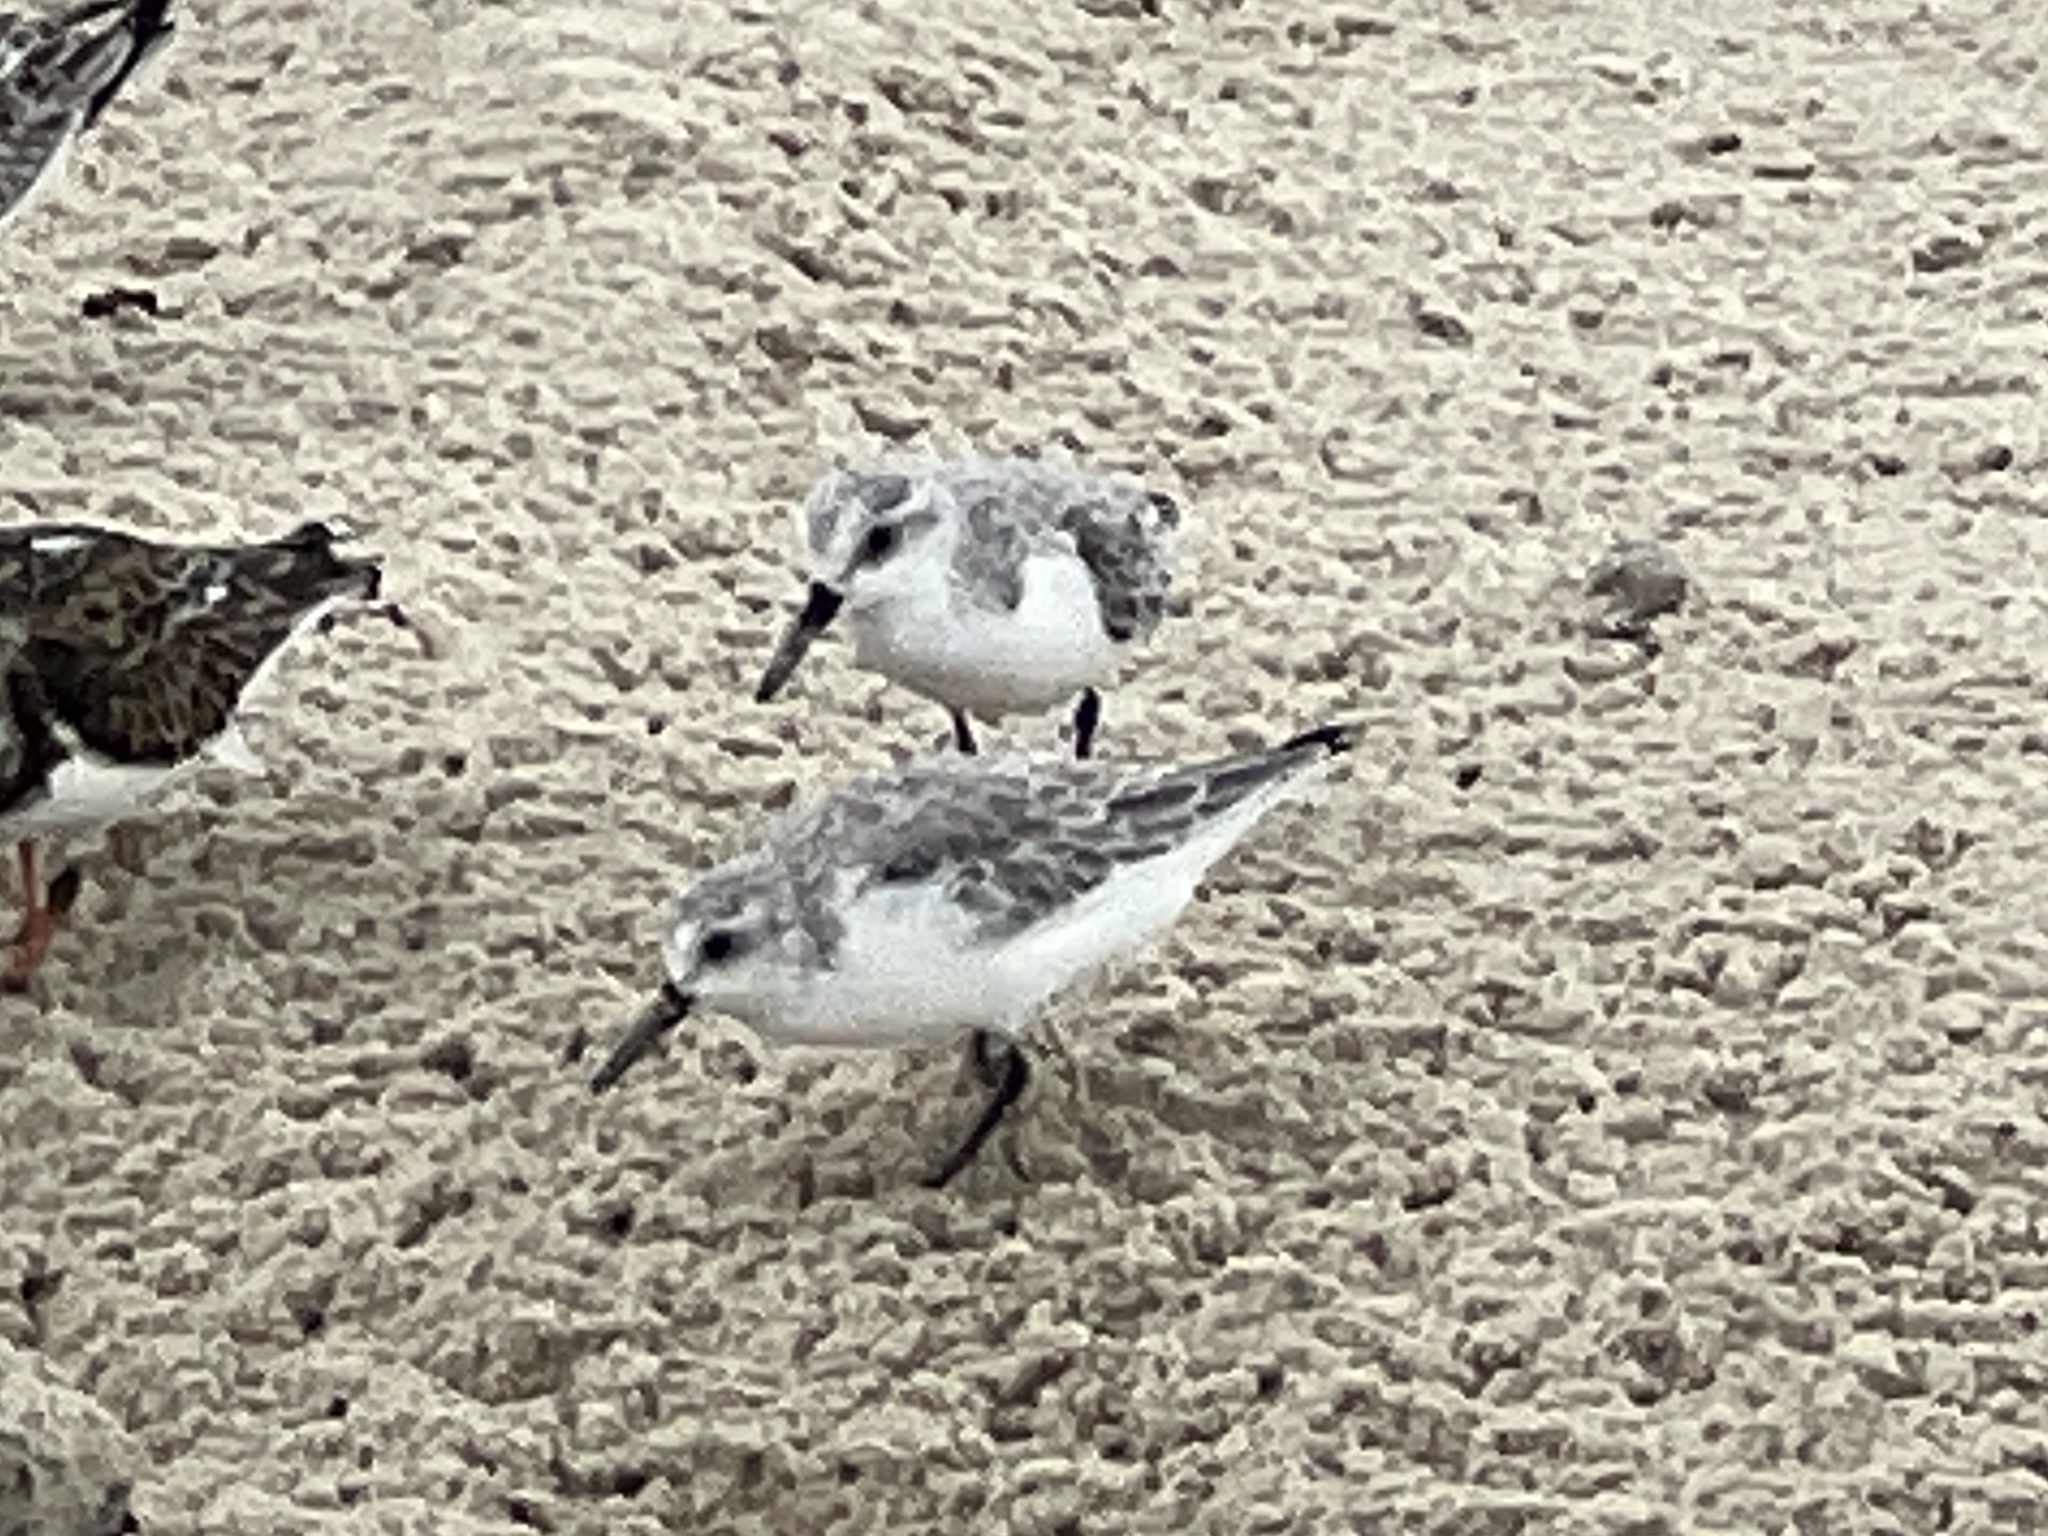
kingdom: Animalia
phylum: Chordata
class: Aves
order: Charadriiformes
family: Scolopacidae
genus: Calidris
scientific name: Calidris alba
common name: Sanderling
